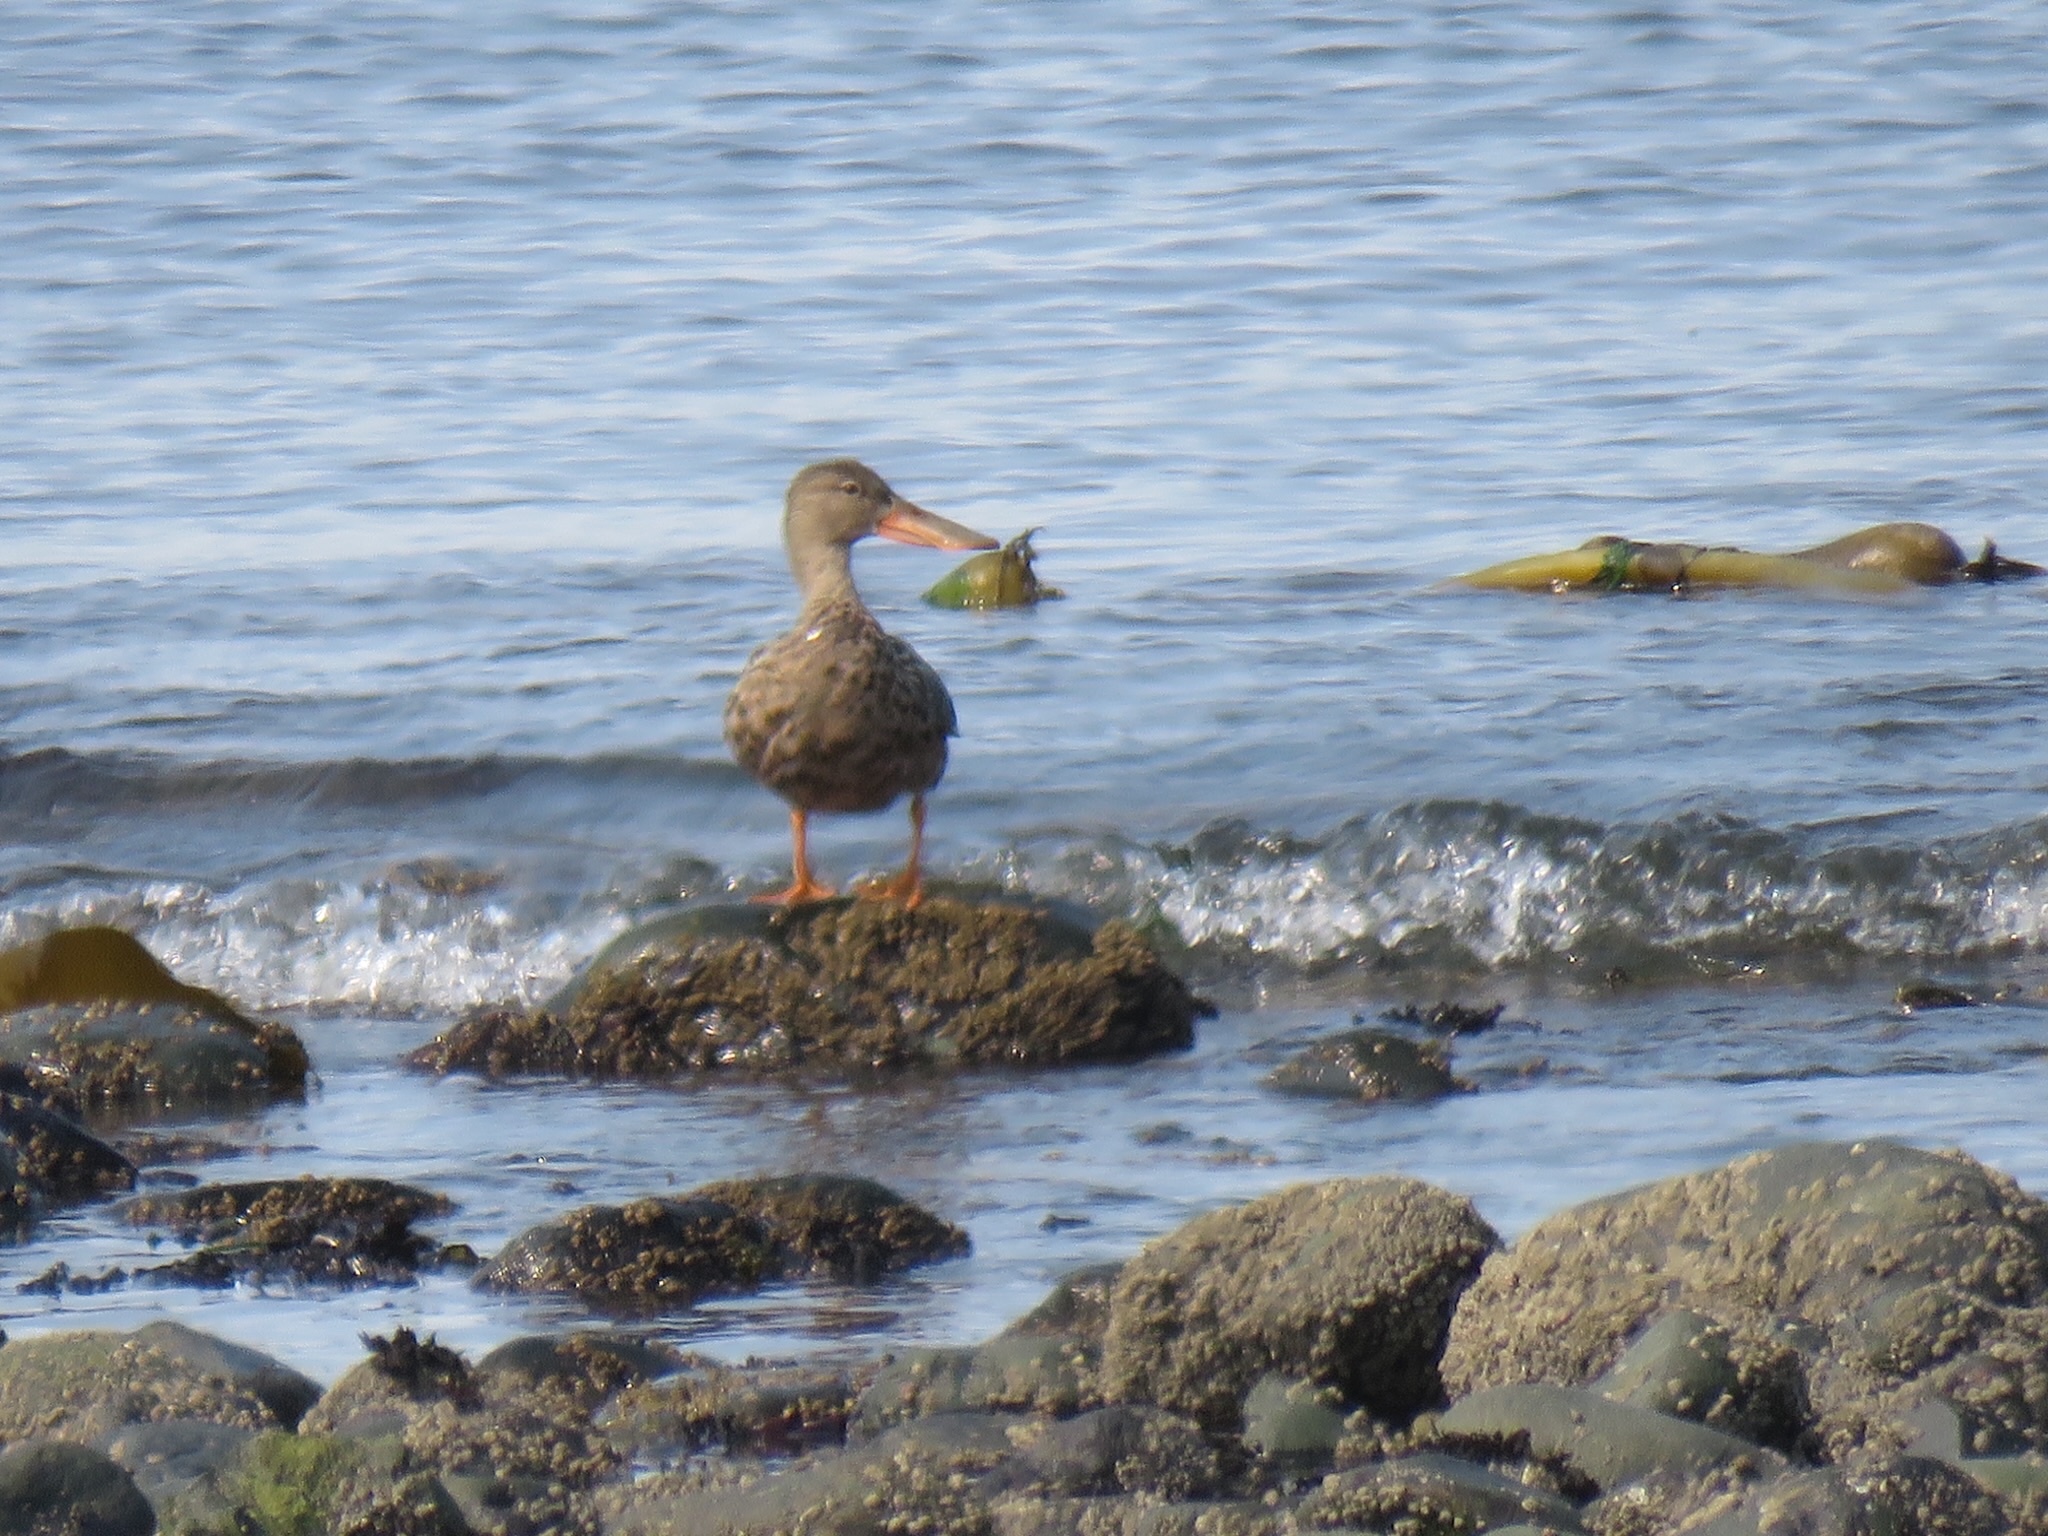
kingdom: Animalia
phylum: Chordata
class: Aves
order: Anseriformes
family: Anatidae
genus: Spatula
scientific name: Spatula clypeata
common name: Northern shoveler
